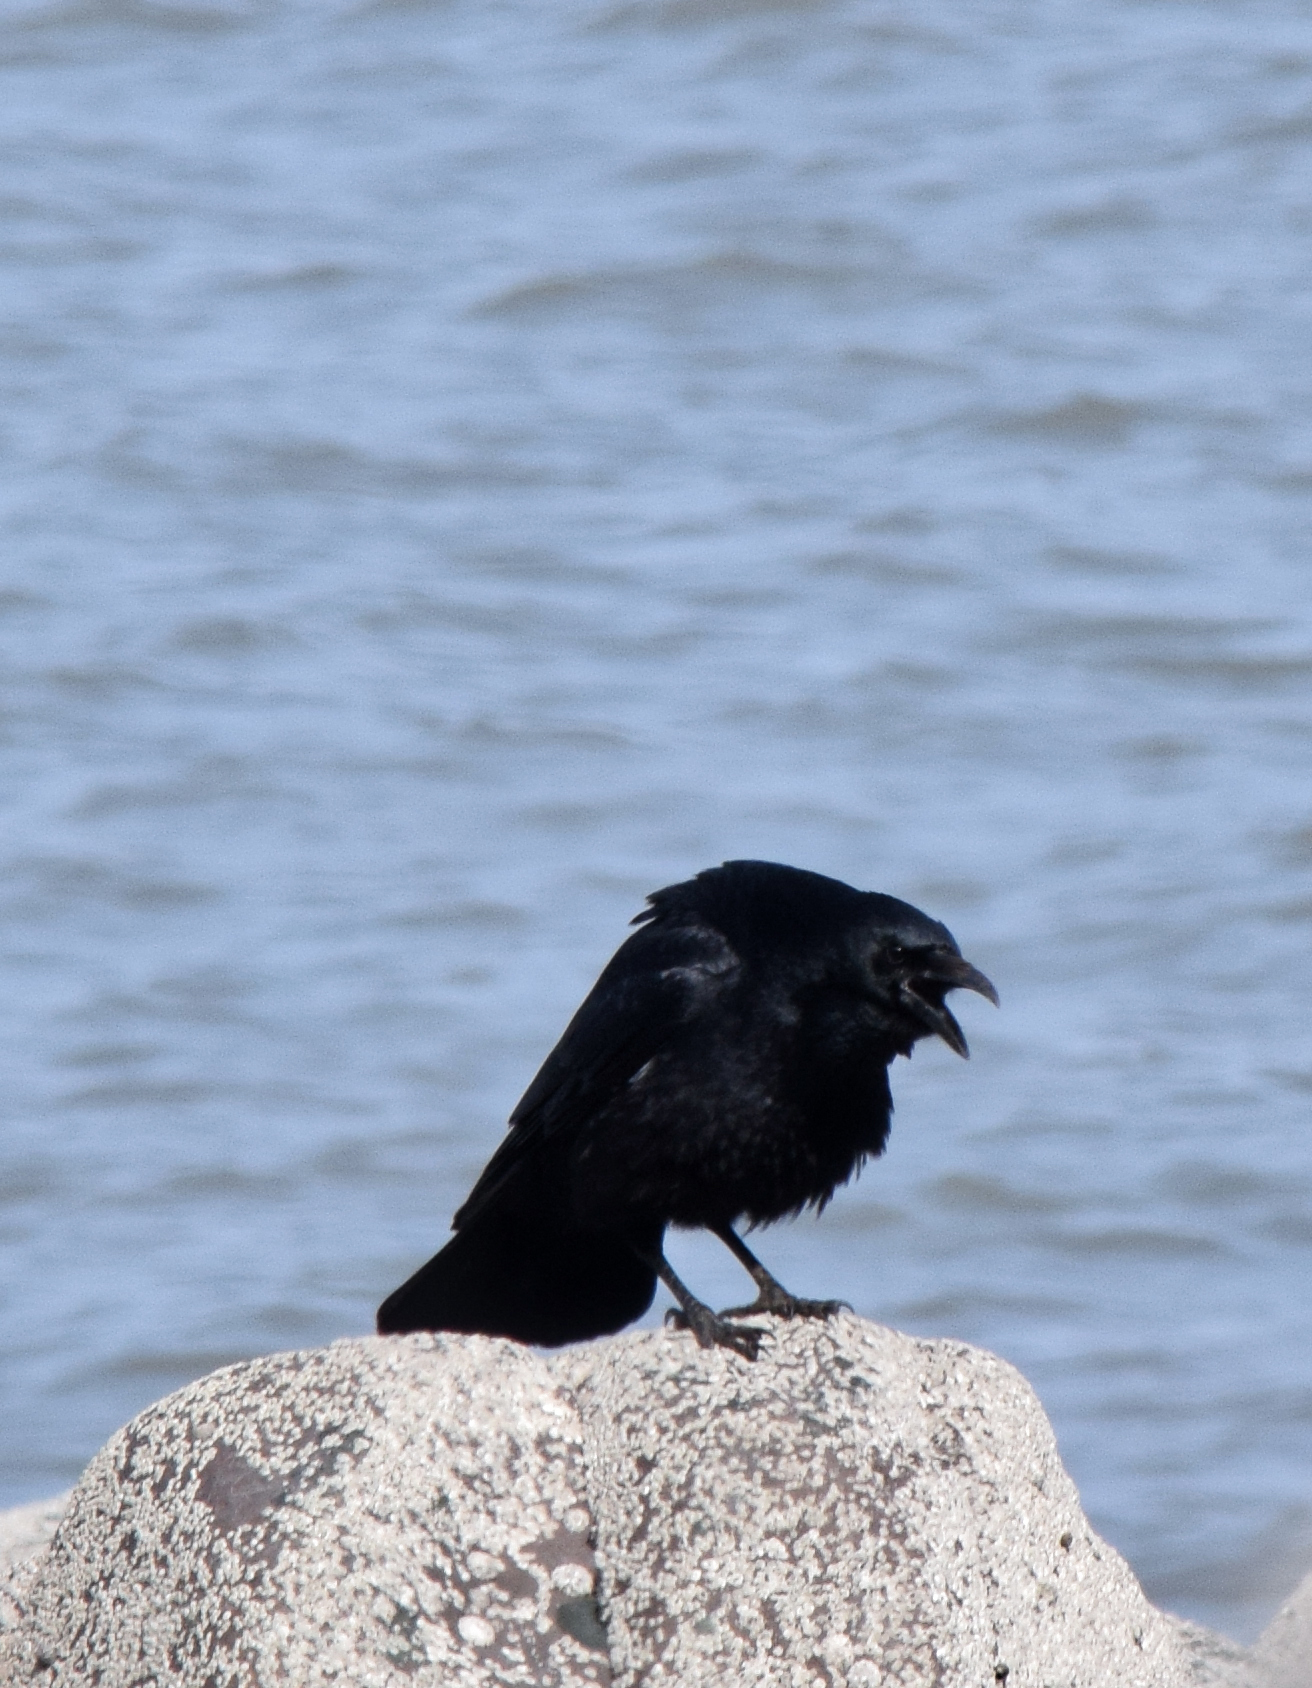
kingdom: Animalia
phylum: Chordata
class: Aves
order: Passeriformes
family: Corvidae
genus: Corvus
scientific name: Corvus corone
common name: Carrion crow
